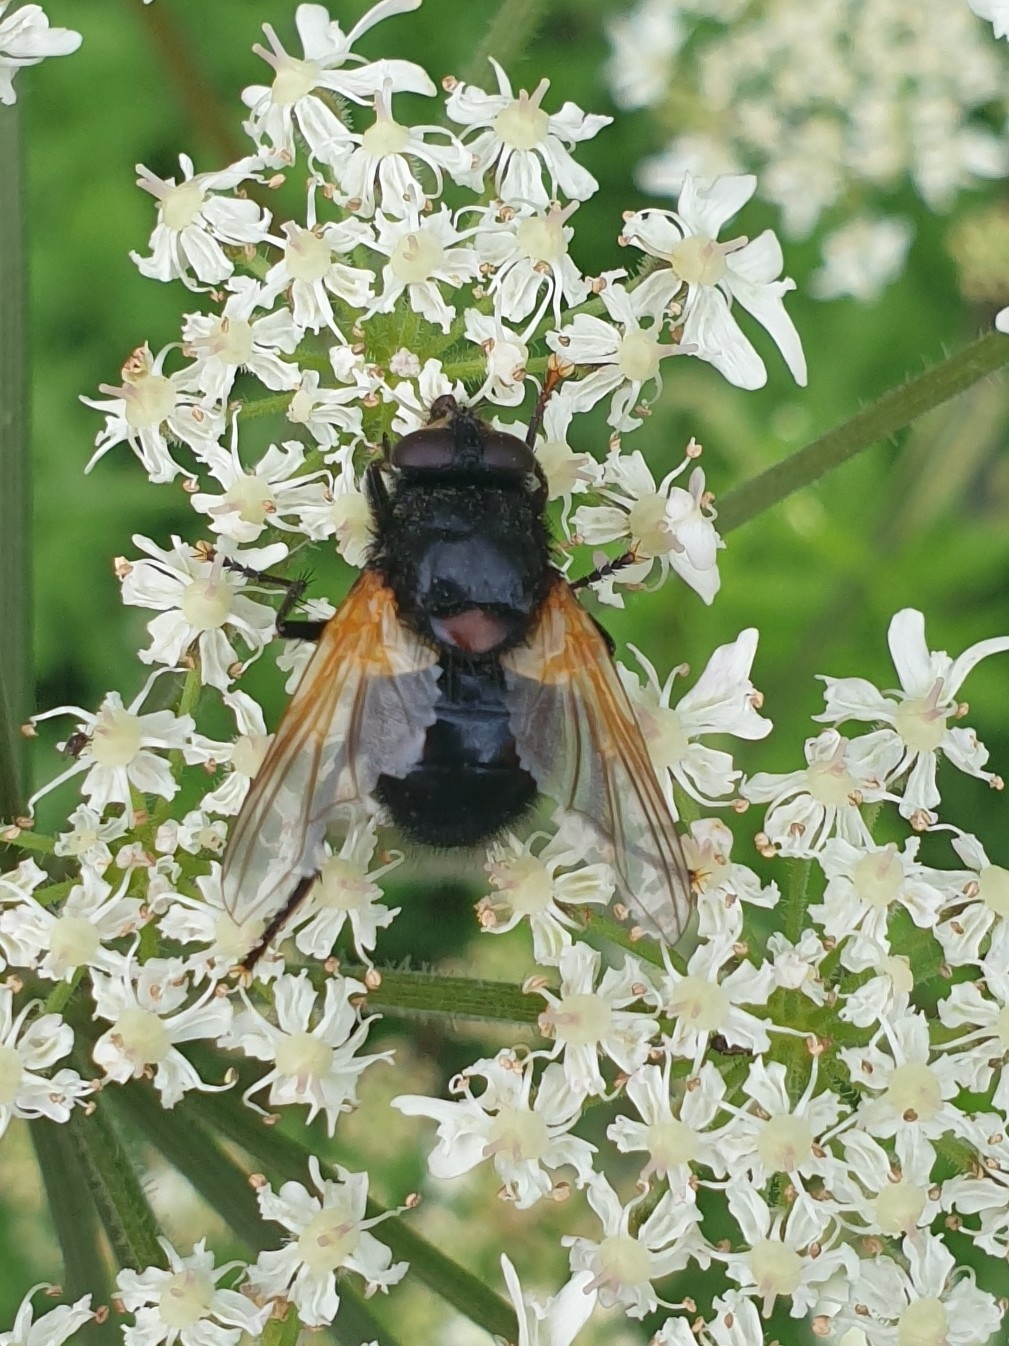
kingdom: Animalia
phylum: Arthropoda
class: Insecta
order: Diptera
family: Muscidae
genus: Mesembrina
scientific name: Mesembrina meridiana
